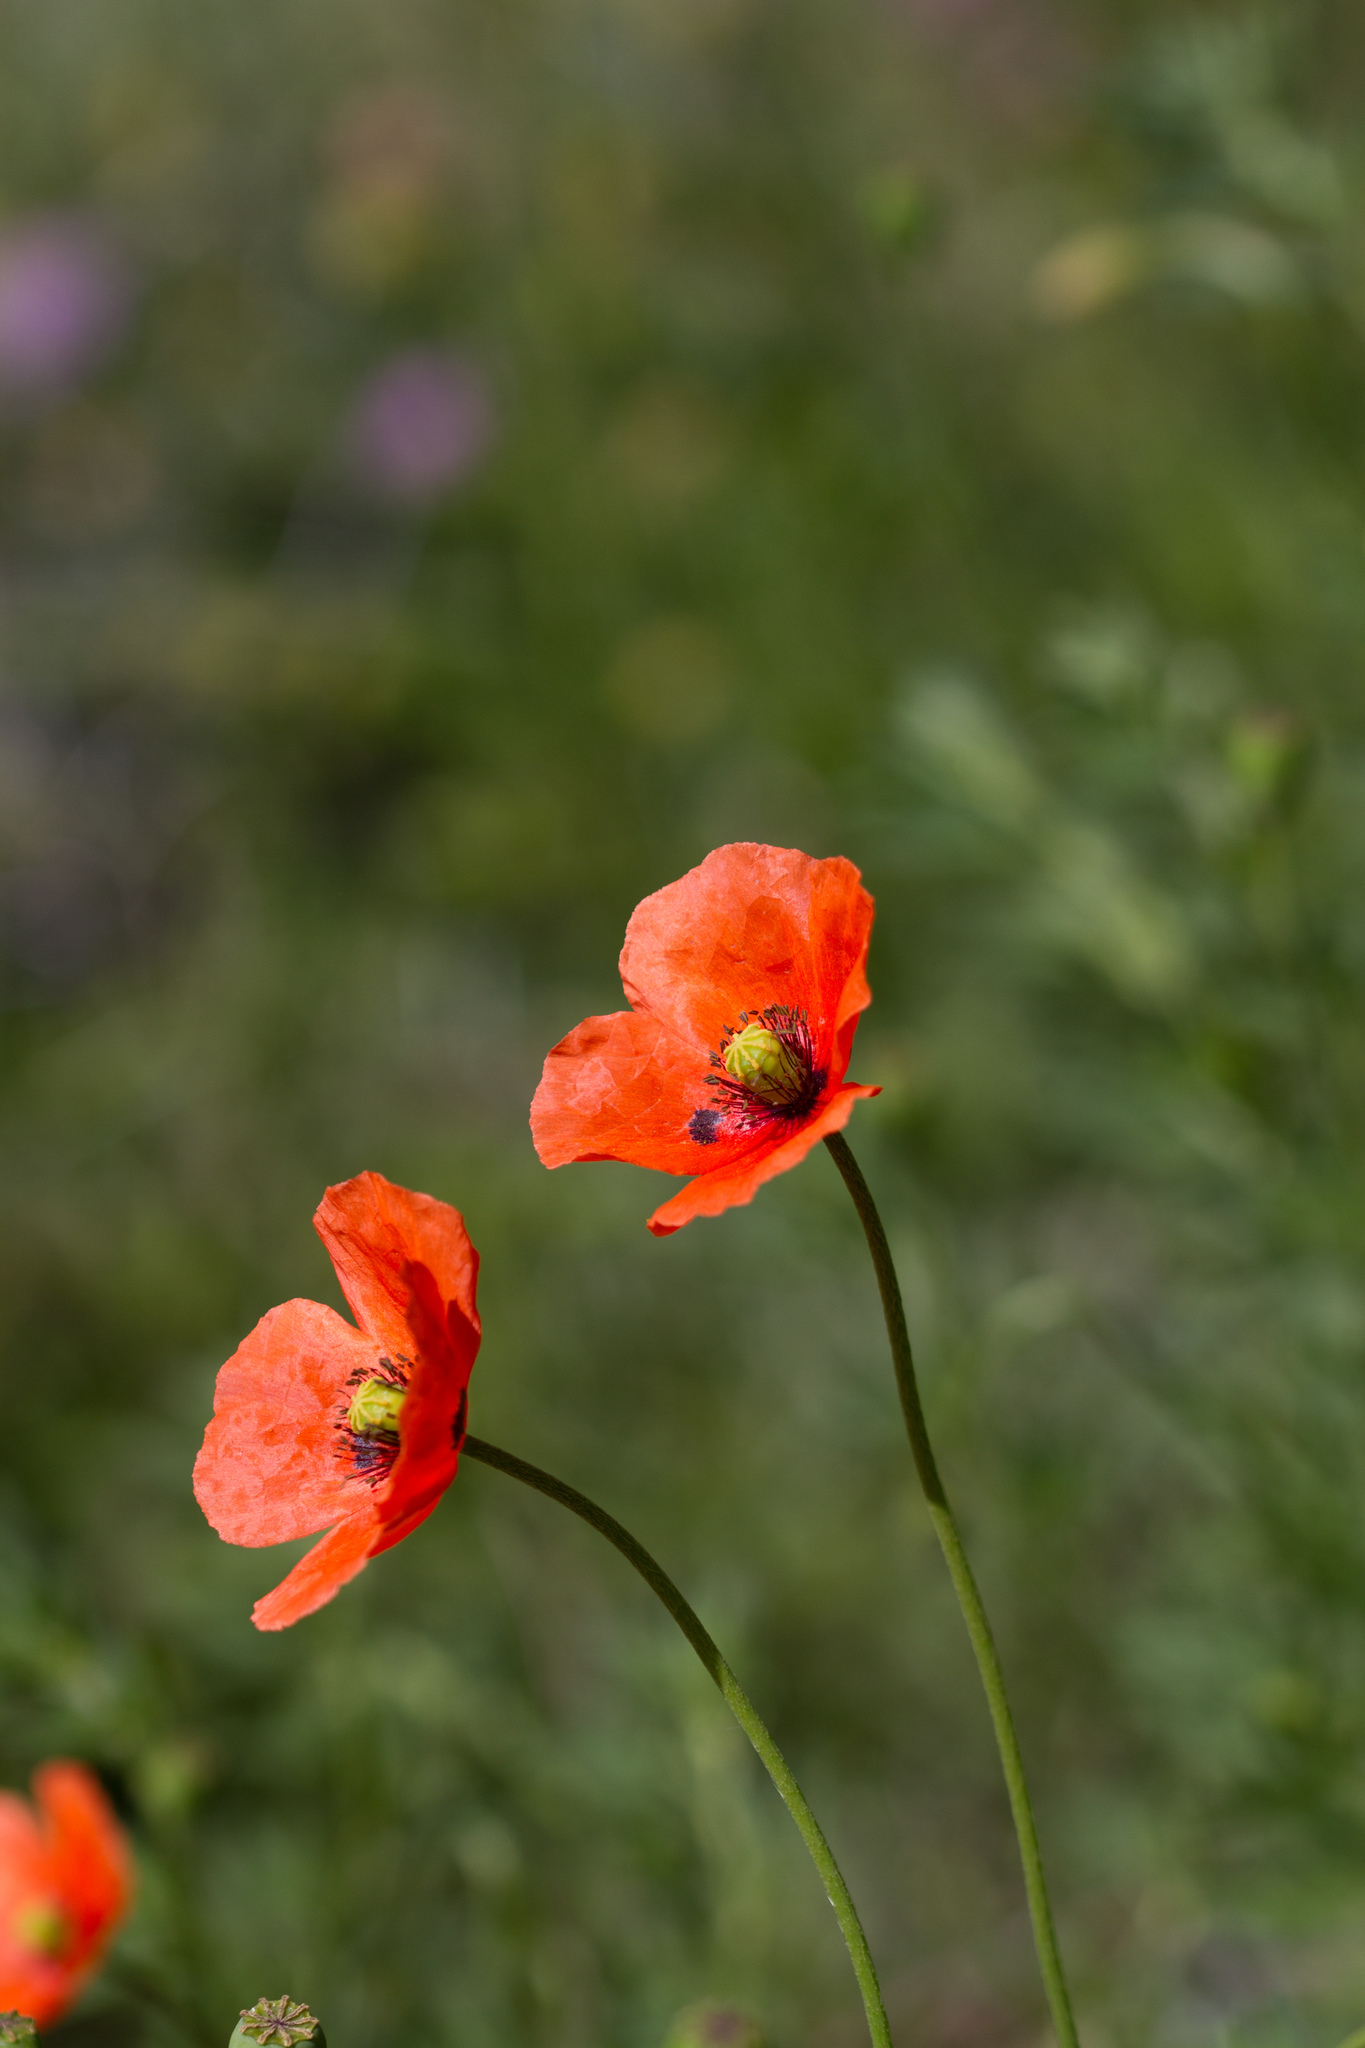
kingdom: Plantae
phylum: Tracheophyta
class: Magnoliopsida
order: Ranunculales
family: Papaveraceae
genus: Papaver
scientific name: Papaver dubium
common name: Long-headed poppy
